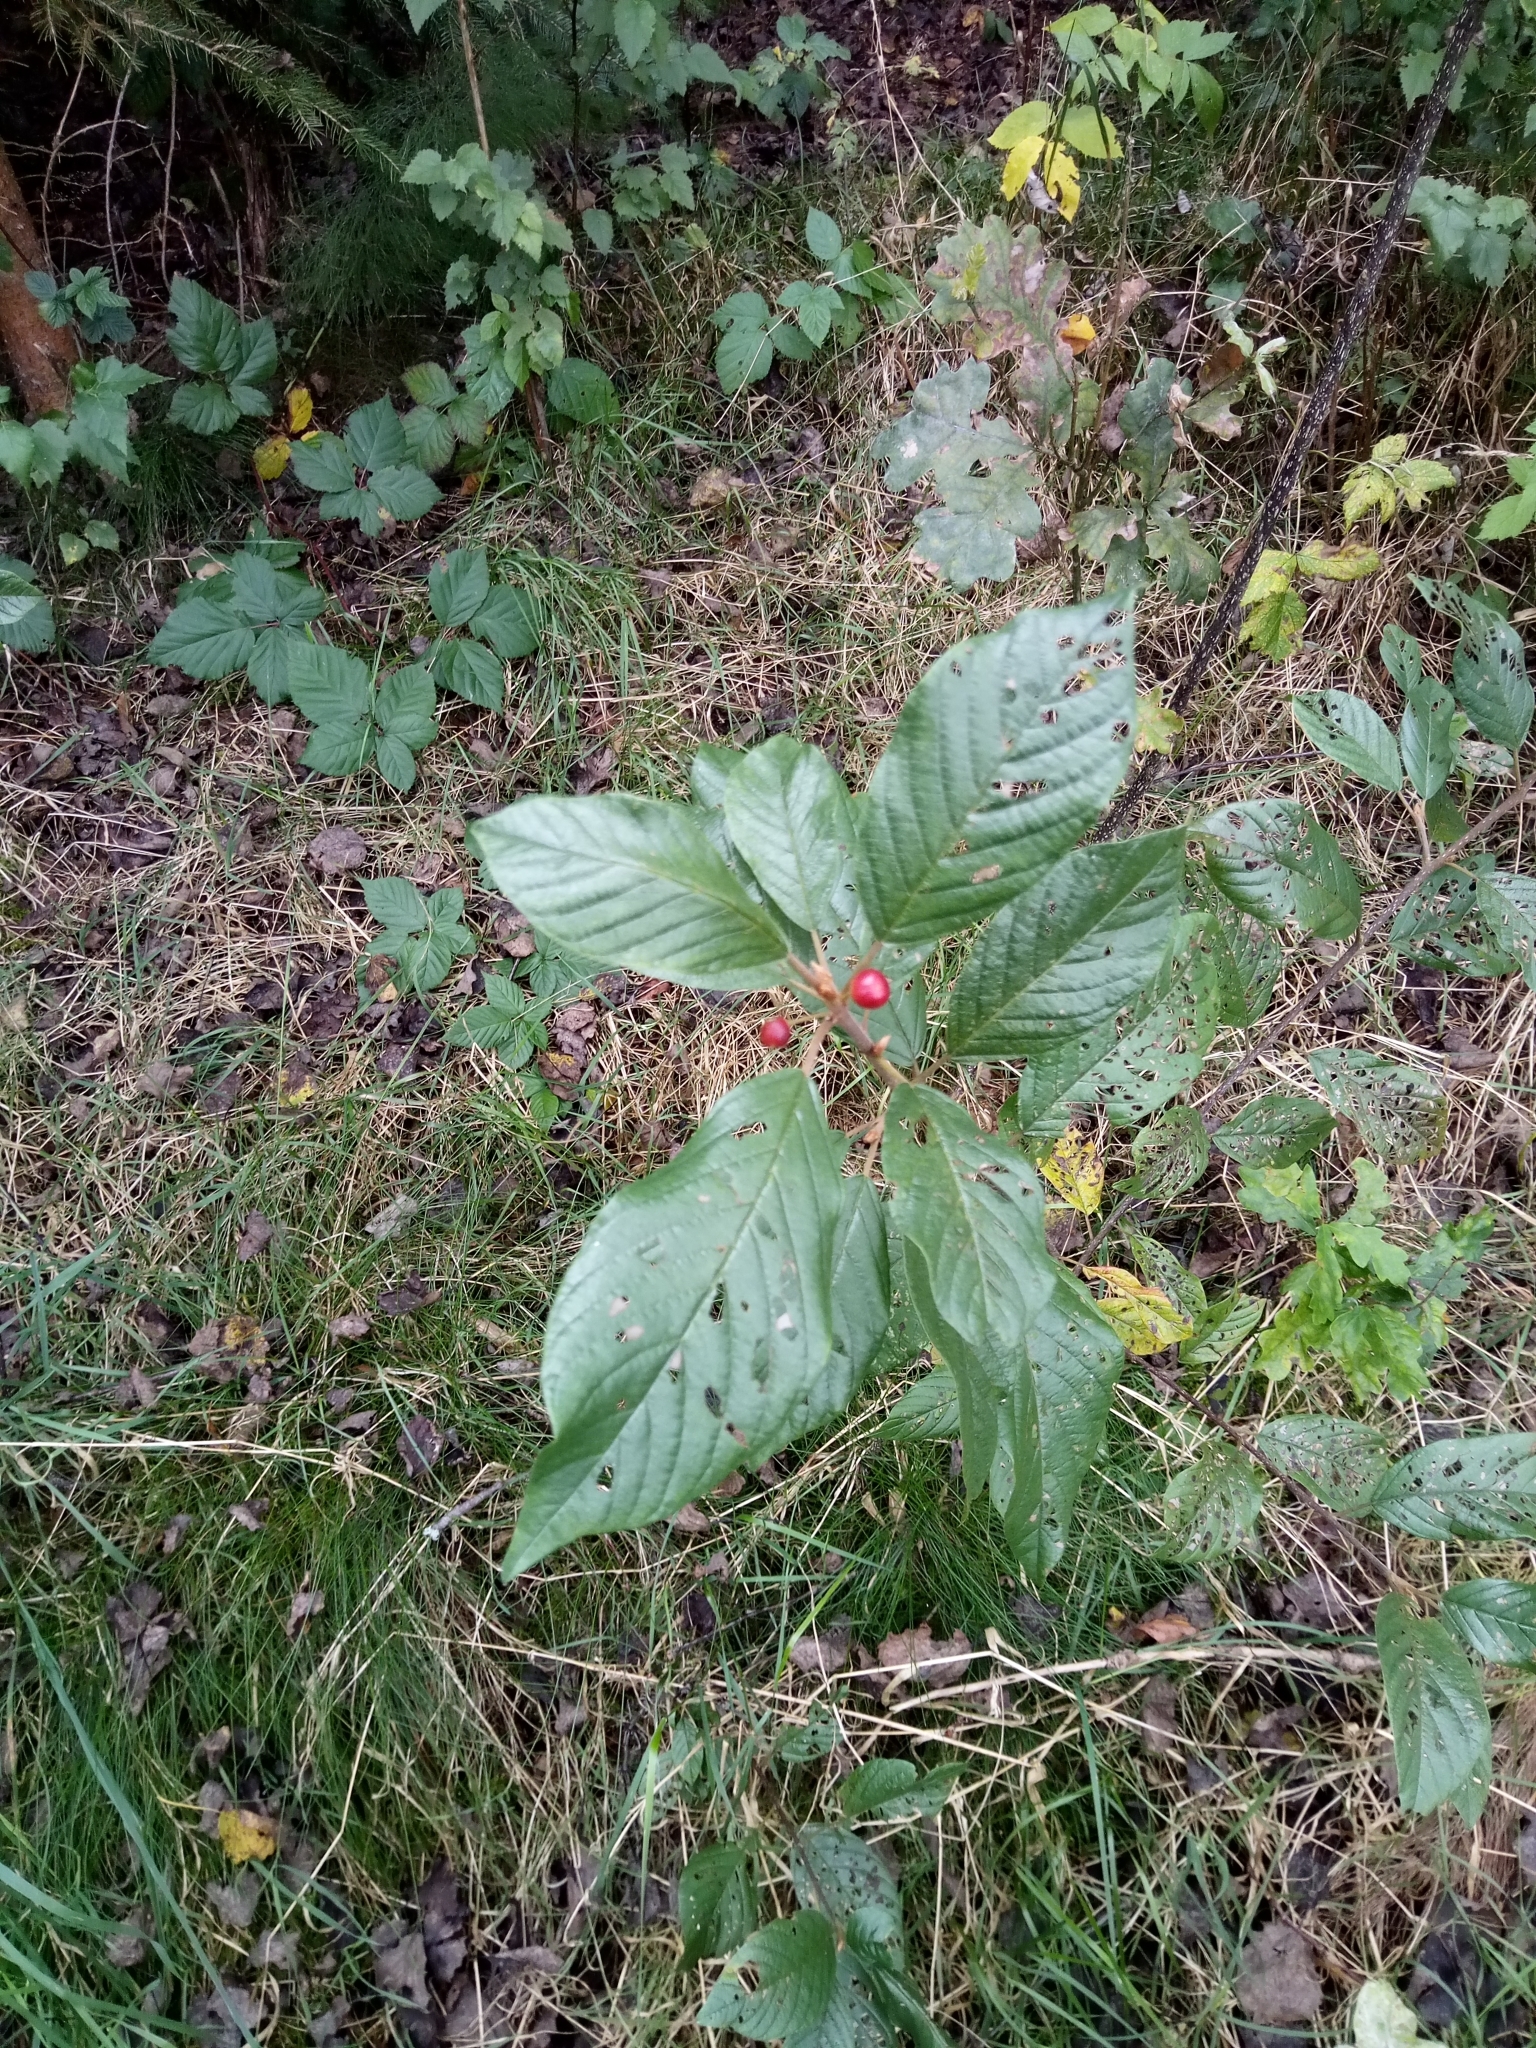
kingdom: Plantae
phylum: Tracheophyta
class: Magnoliopsida
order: Rosales
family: Rhamnaceae
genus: Frangula
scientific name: Frangula alnus
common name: Alder buckthorn
